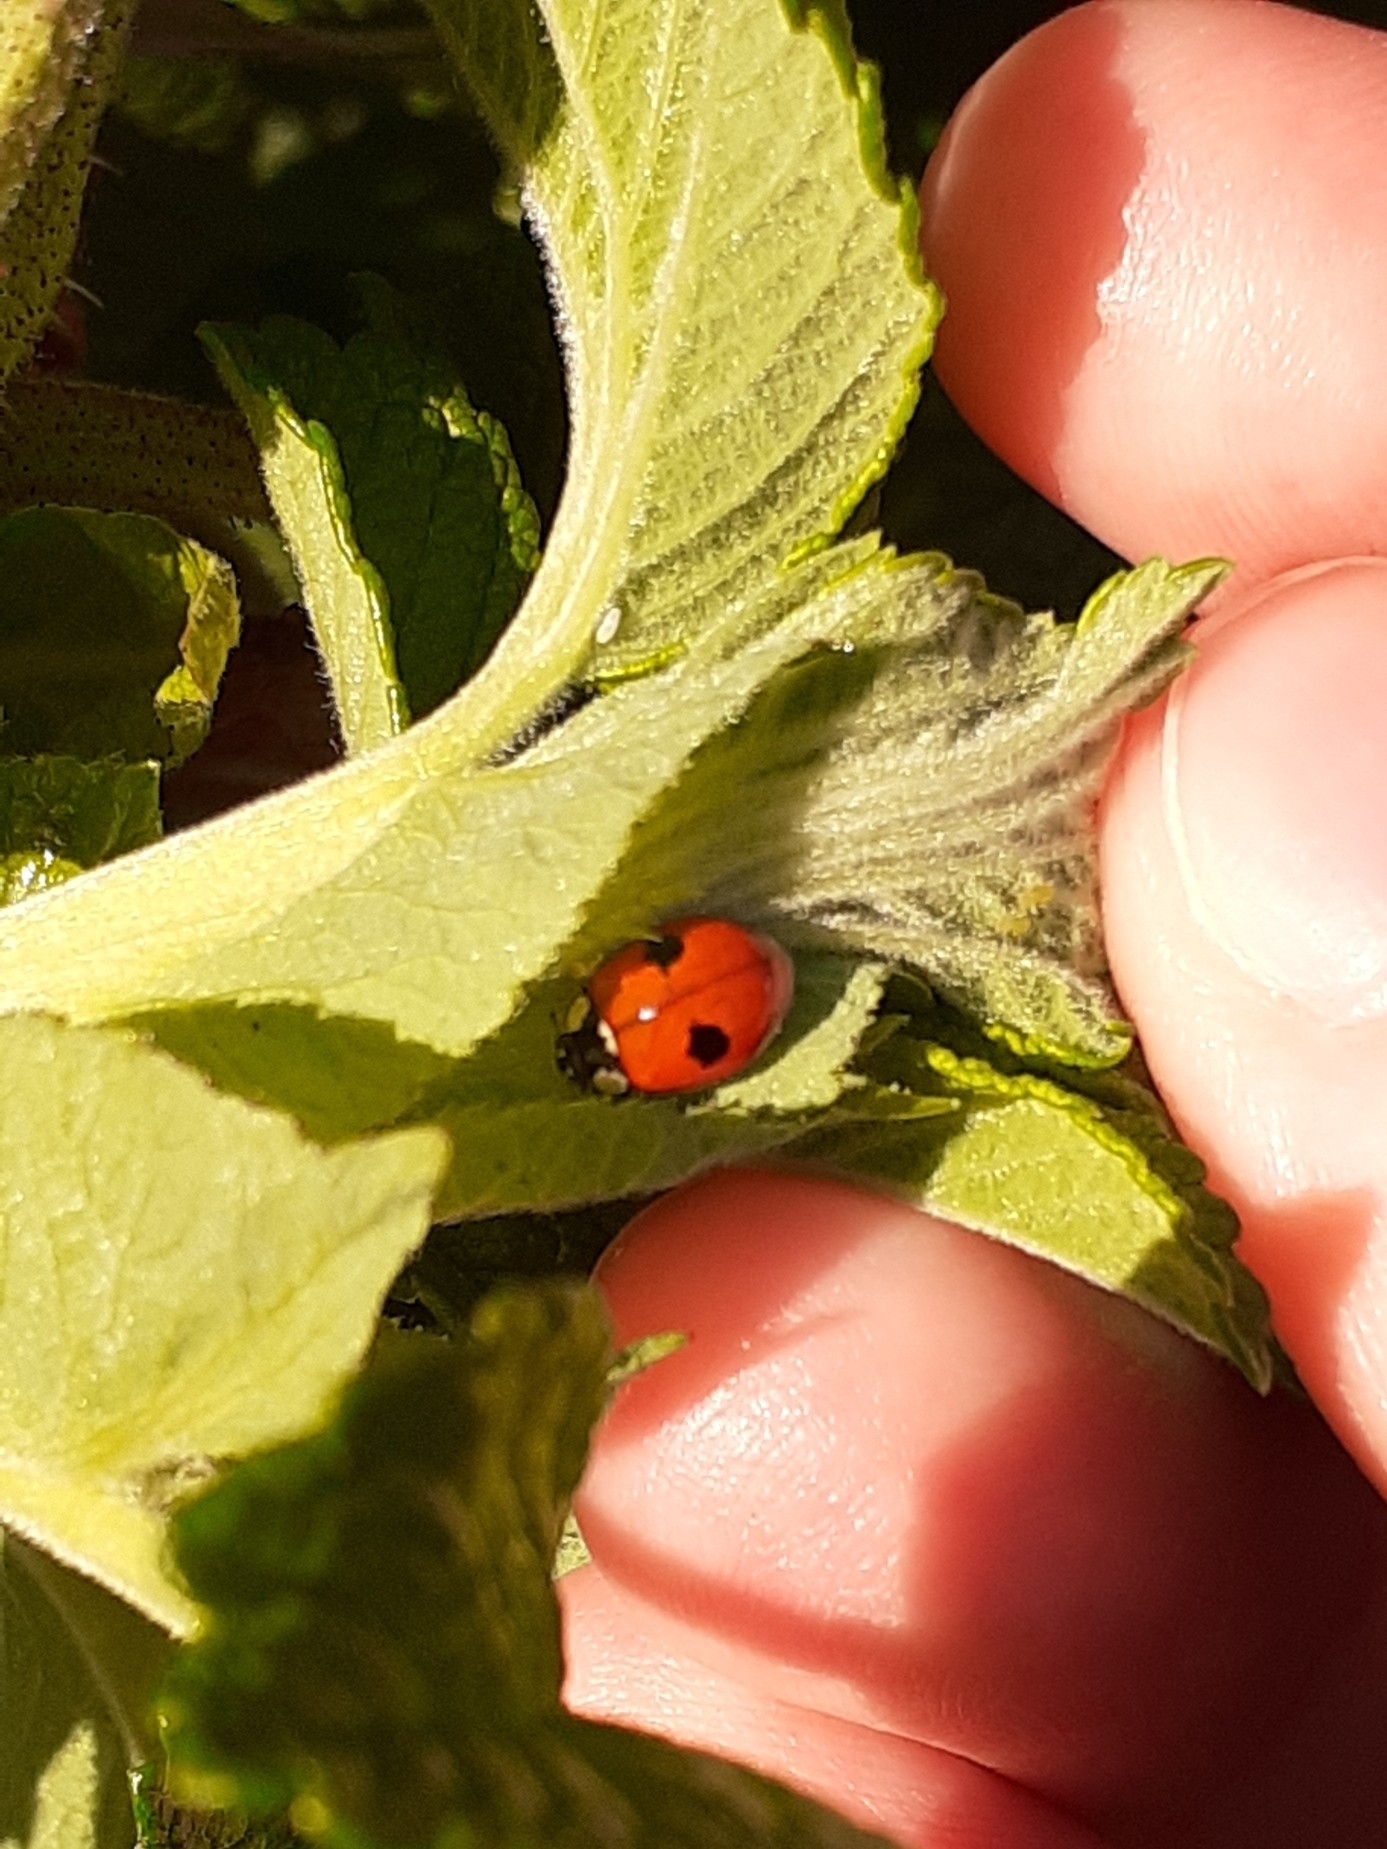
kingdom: Animalia
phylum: Arthropoda
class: Insecta
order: Coleoptera
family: Coccinellidae
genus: Adalia
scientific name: Adalia bipunctata
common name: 2-spot ladybird
